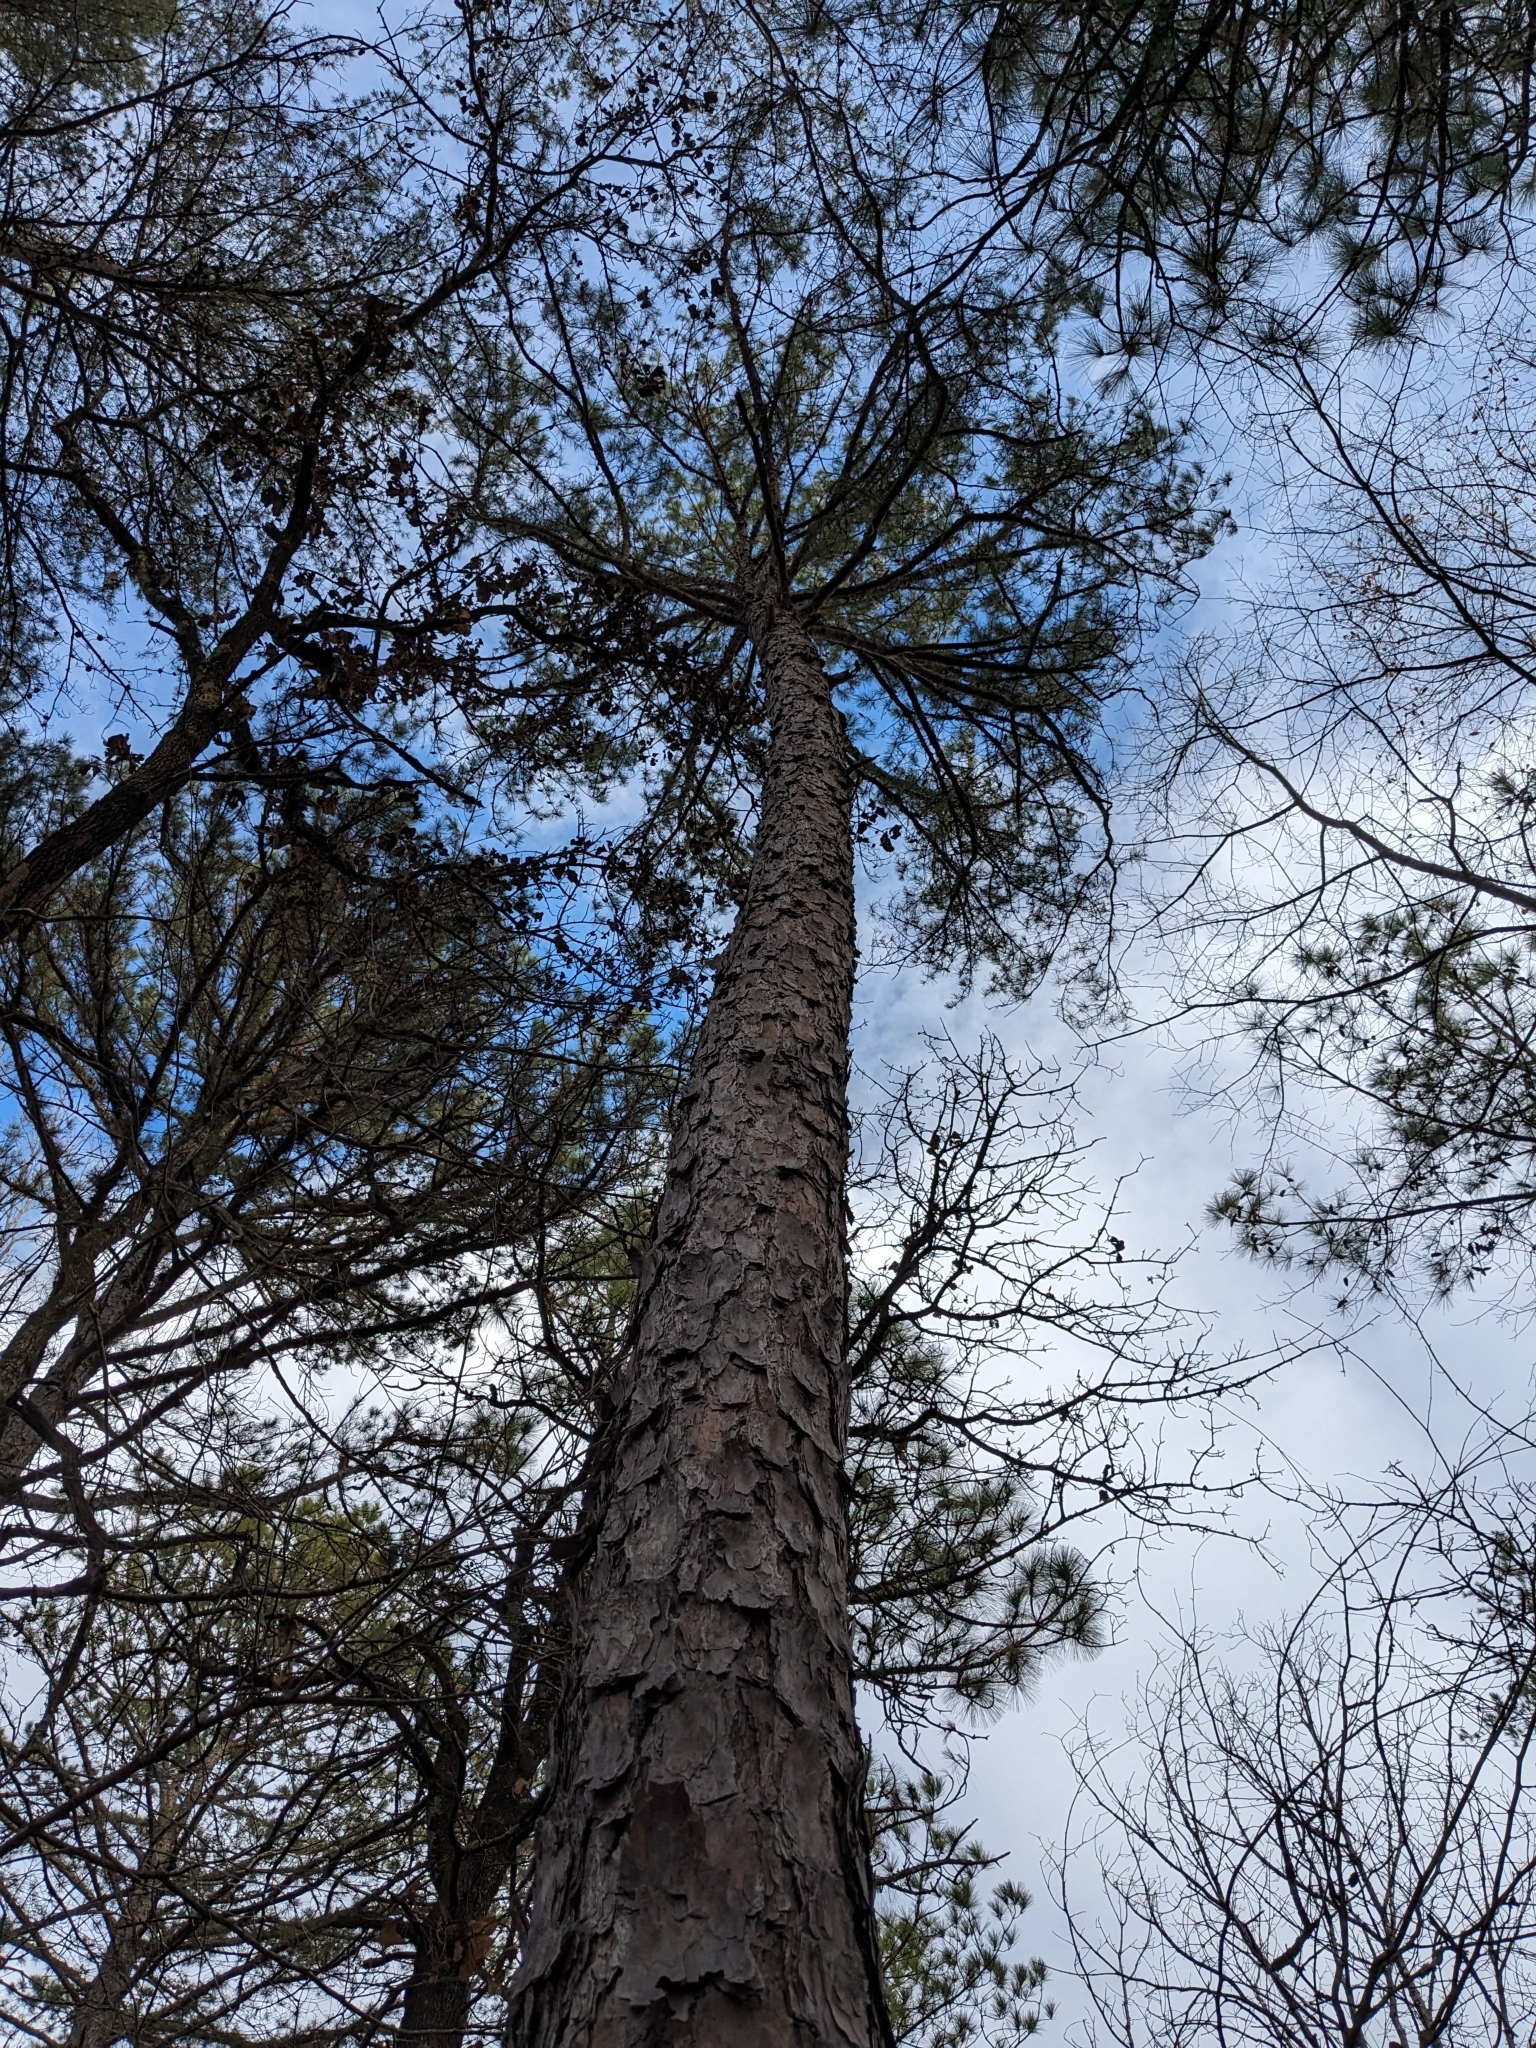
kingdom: Plantae
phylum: Tracheophyta
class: Pinopsida
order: Pinales
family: Pinaceae
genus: Pinus
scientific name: Pinus echinata
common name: Shortleaf pine
